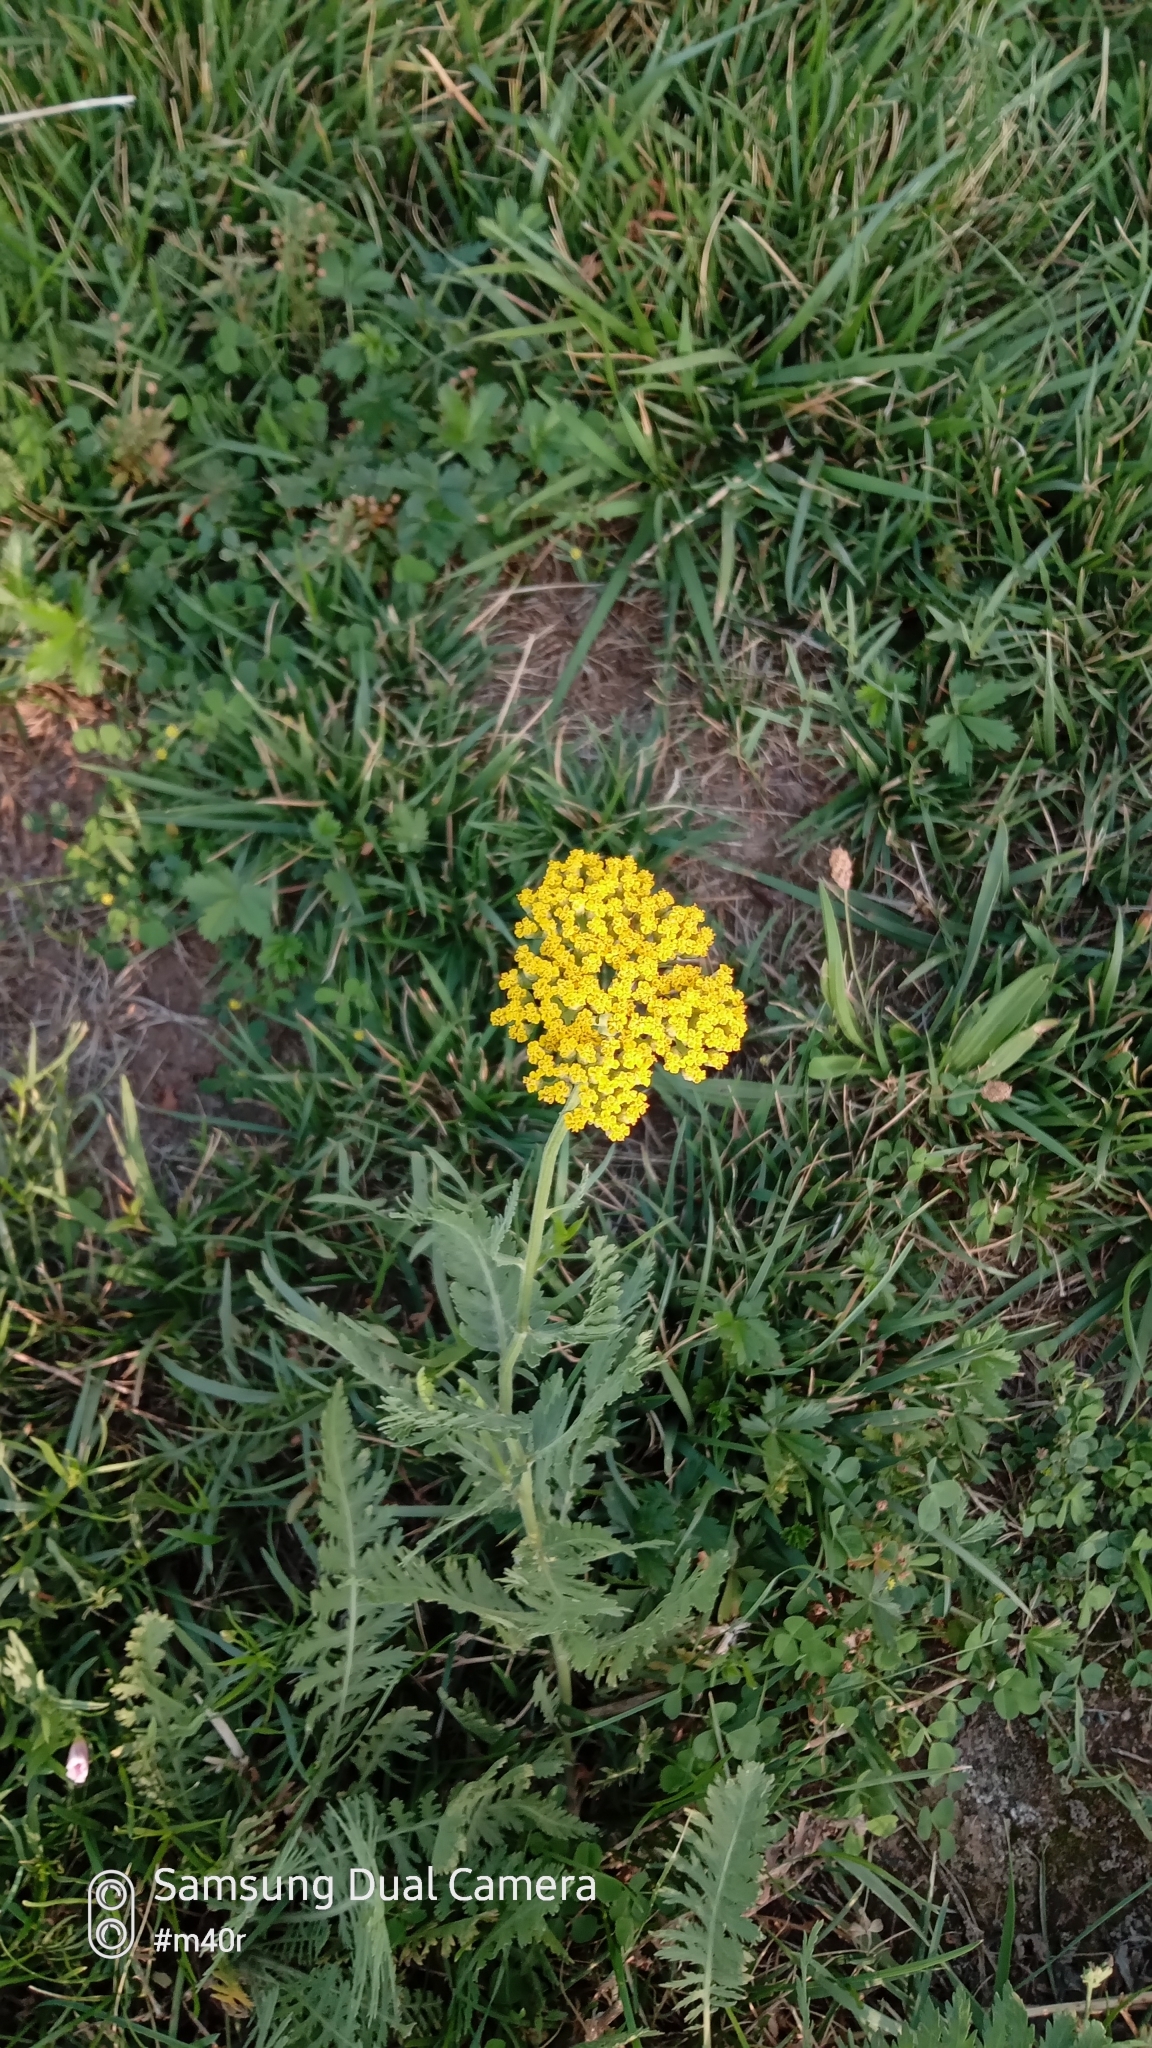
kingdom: Plantae
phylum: Tracheophyta
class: Magnoliopsida
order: Asterales
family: Asteraceae
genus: Achillea
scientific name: Achillea filipendulina
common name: Fernleaf yarrow
